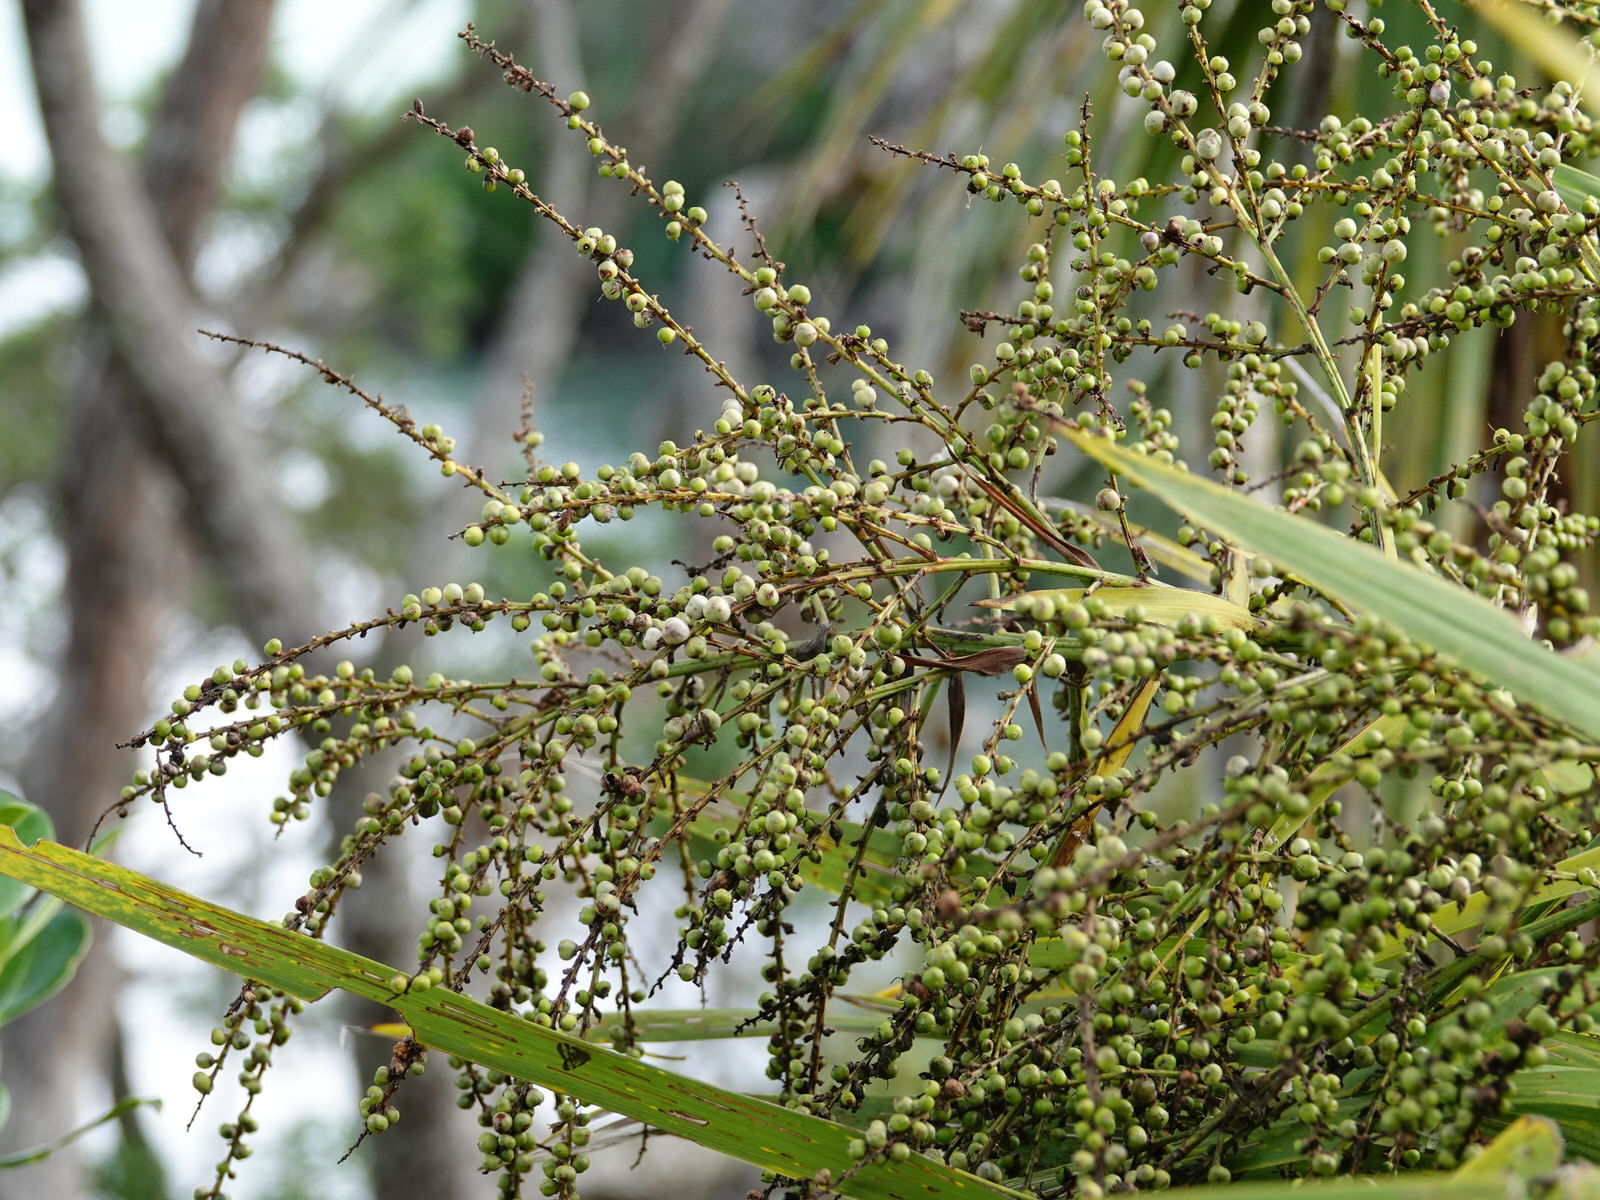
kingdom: Plantae
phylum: Tracheophyta
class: Liliopsida
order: Asparagales
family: Asparagaceae
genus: Cordyline
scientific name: Cordyline australis
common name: Cabbage-palm
